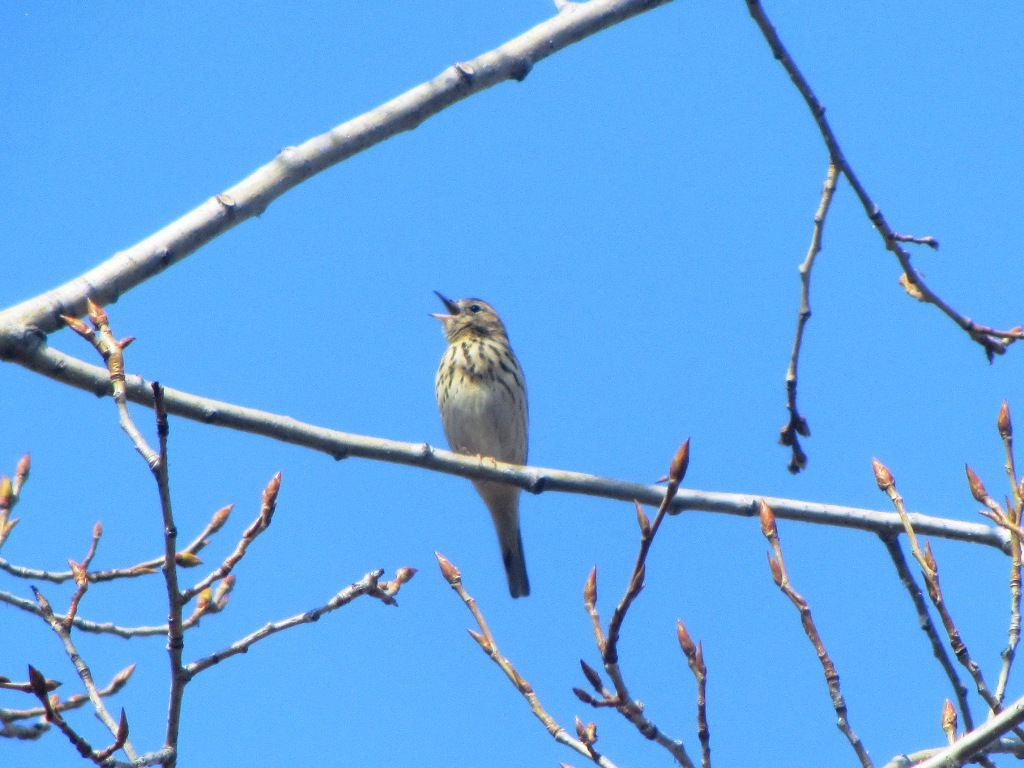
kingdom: Animalia
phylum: Chordata
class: Aves
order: Passeriformes
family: Motacillidae
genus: Anthus
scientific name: Anthus trivialis
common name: Tree pipit
